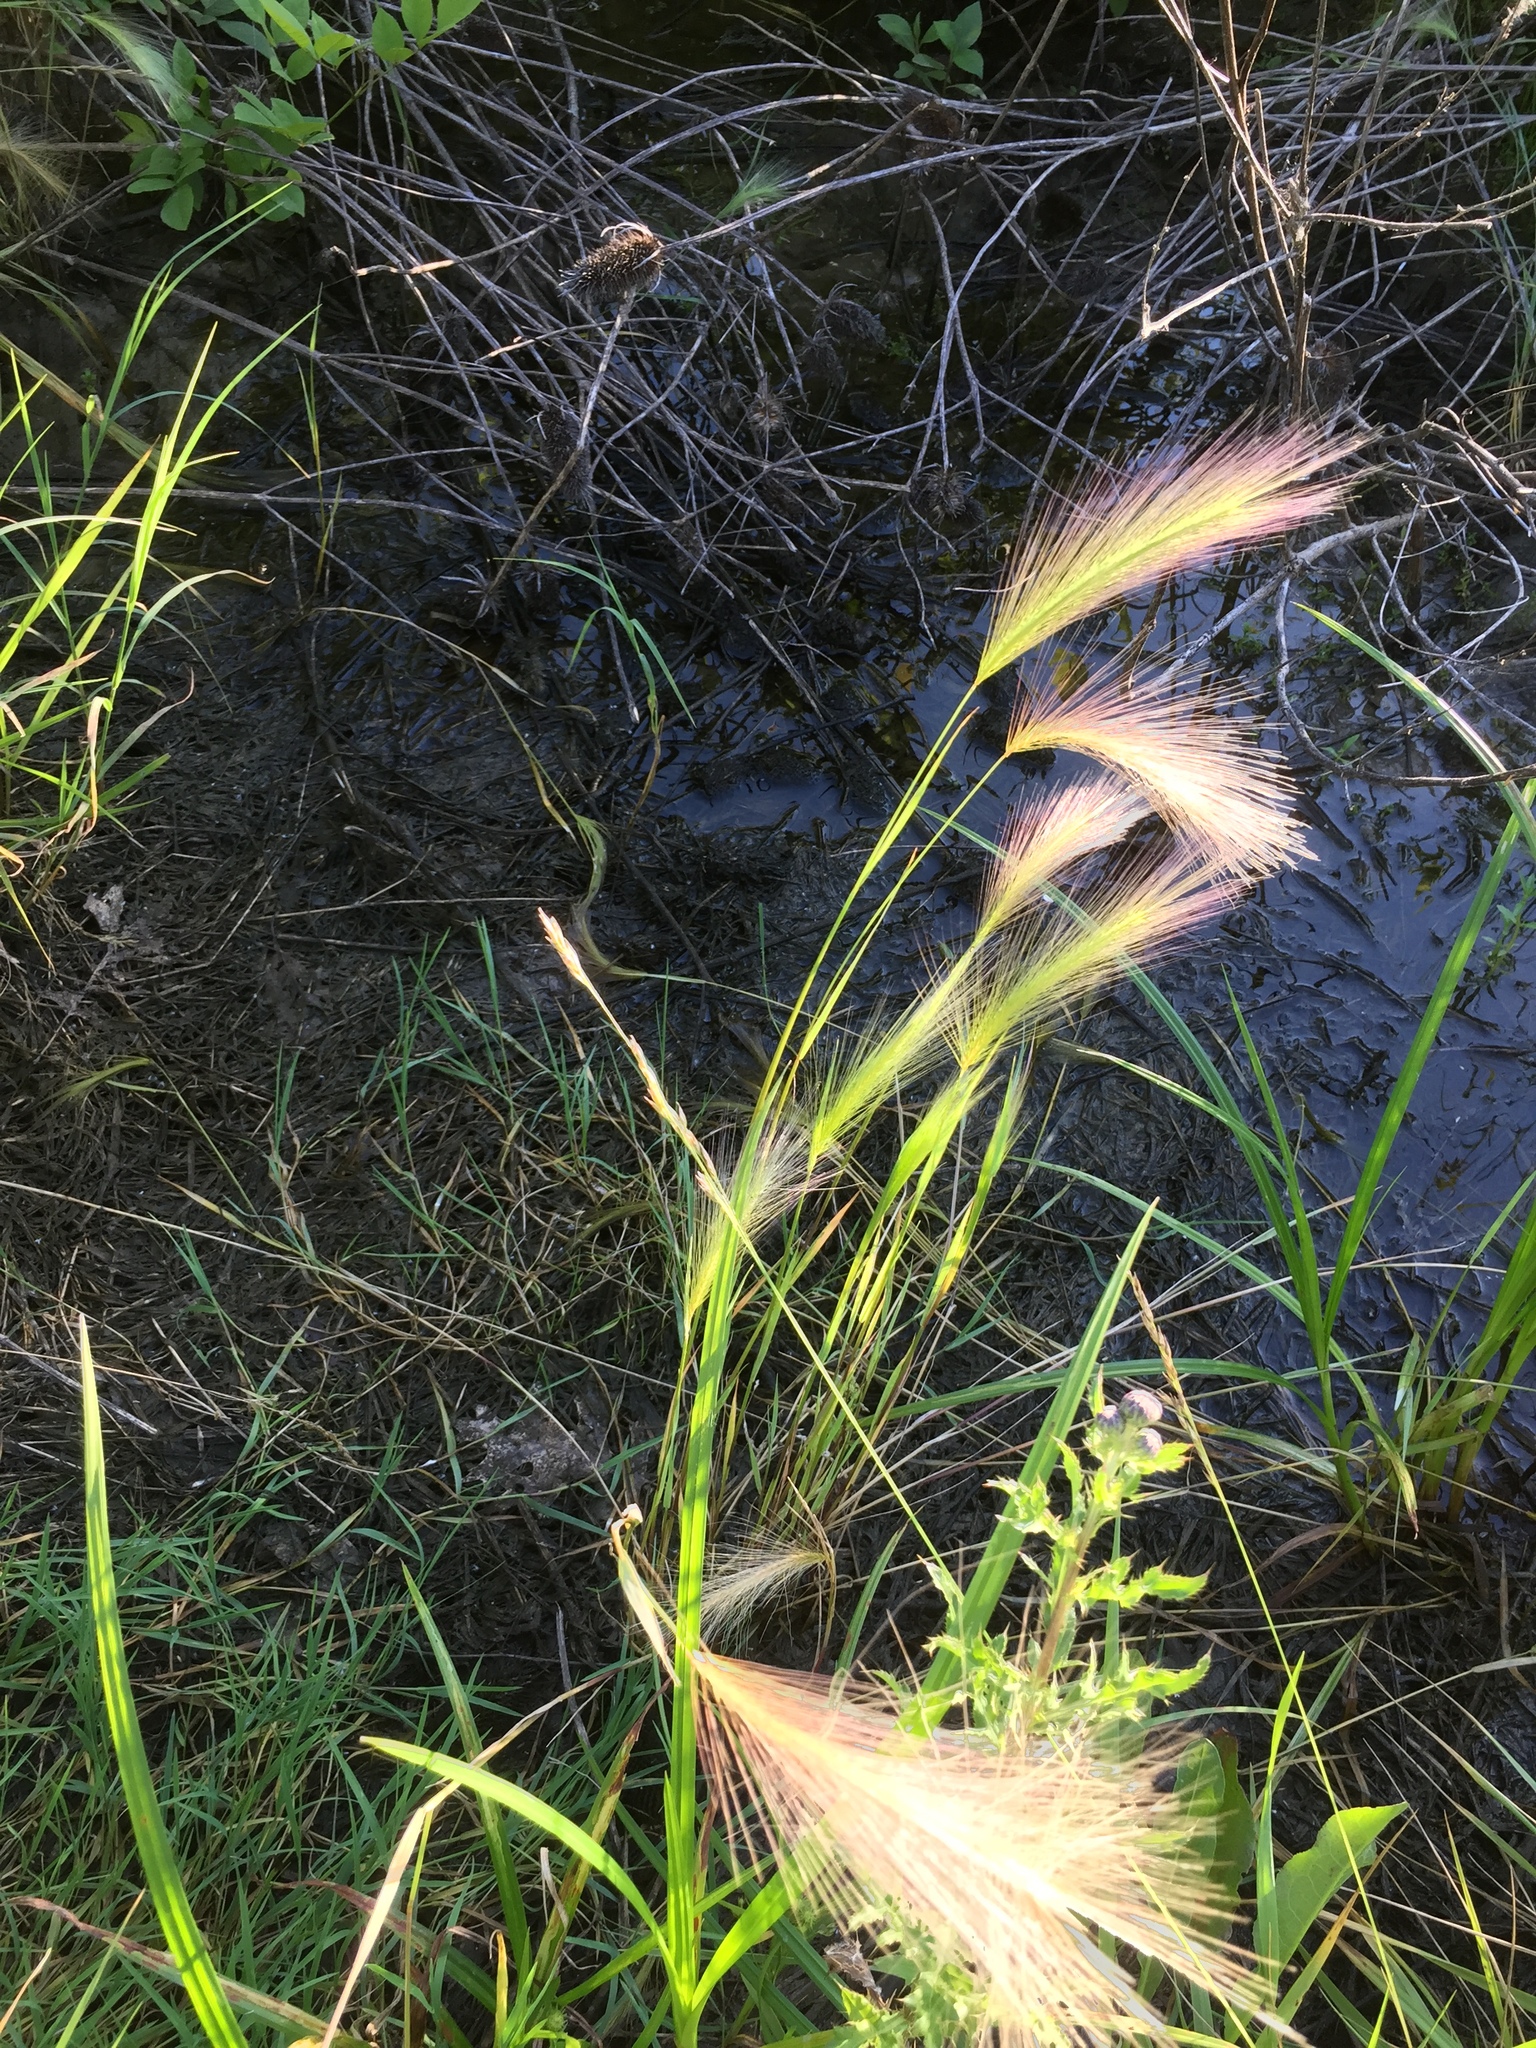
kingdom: Plantae
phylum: Tracheophyta
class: Liliopsida
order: Poales
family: Poaceae
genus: Hordeum
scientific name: Hordeum jubatum
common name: Foxtail barley
